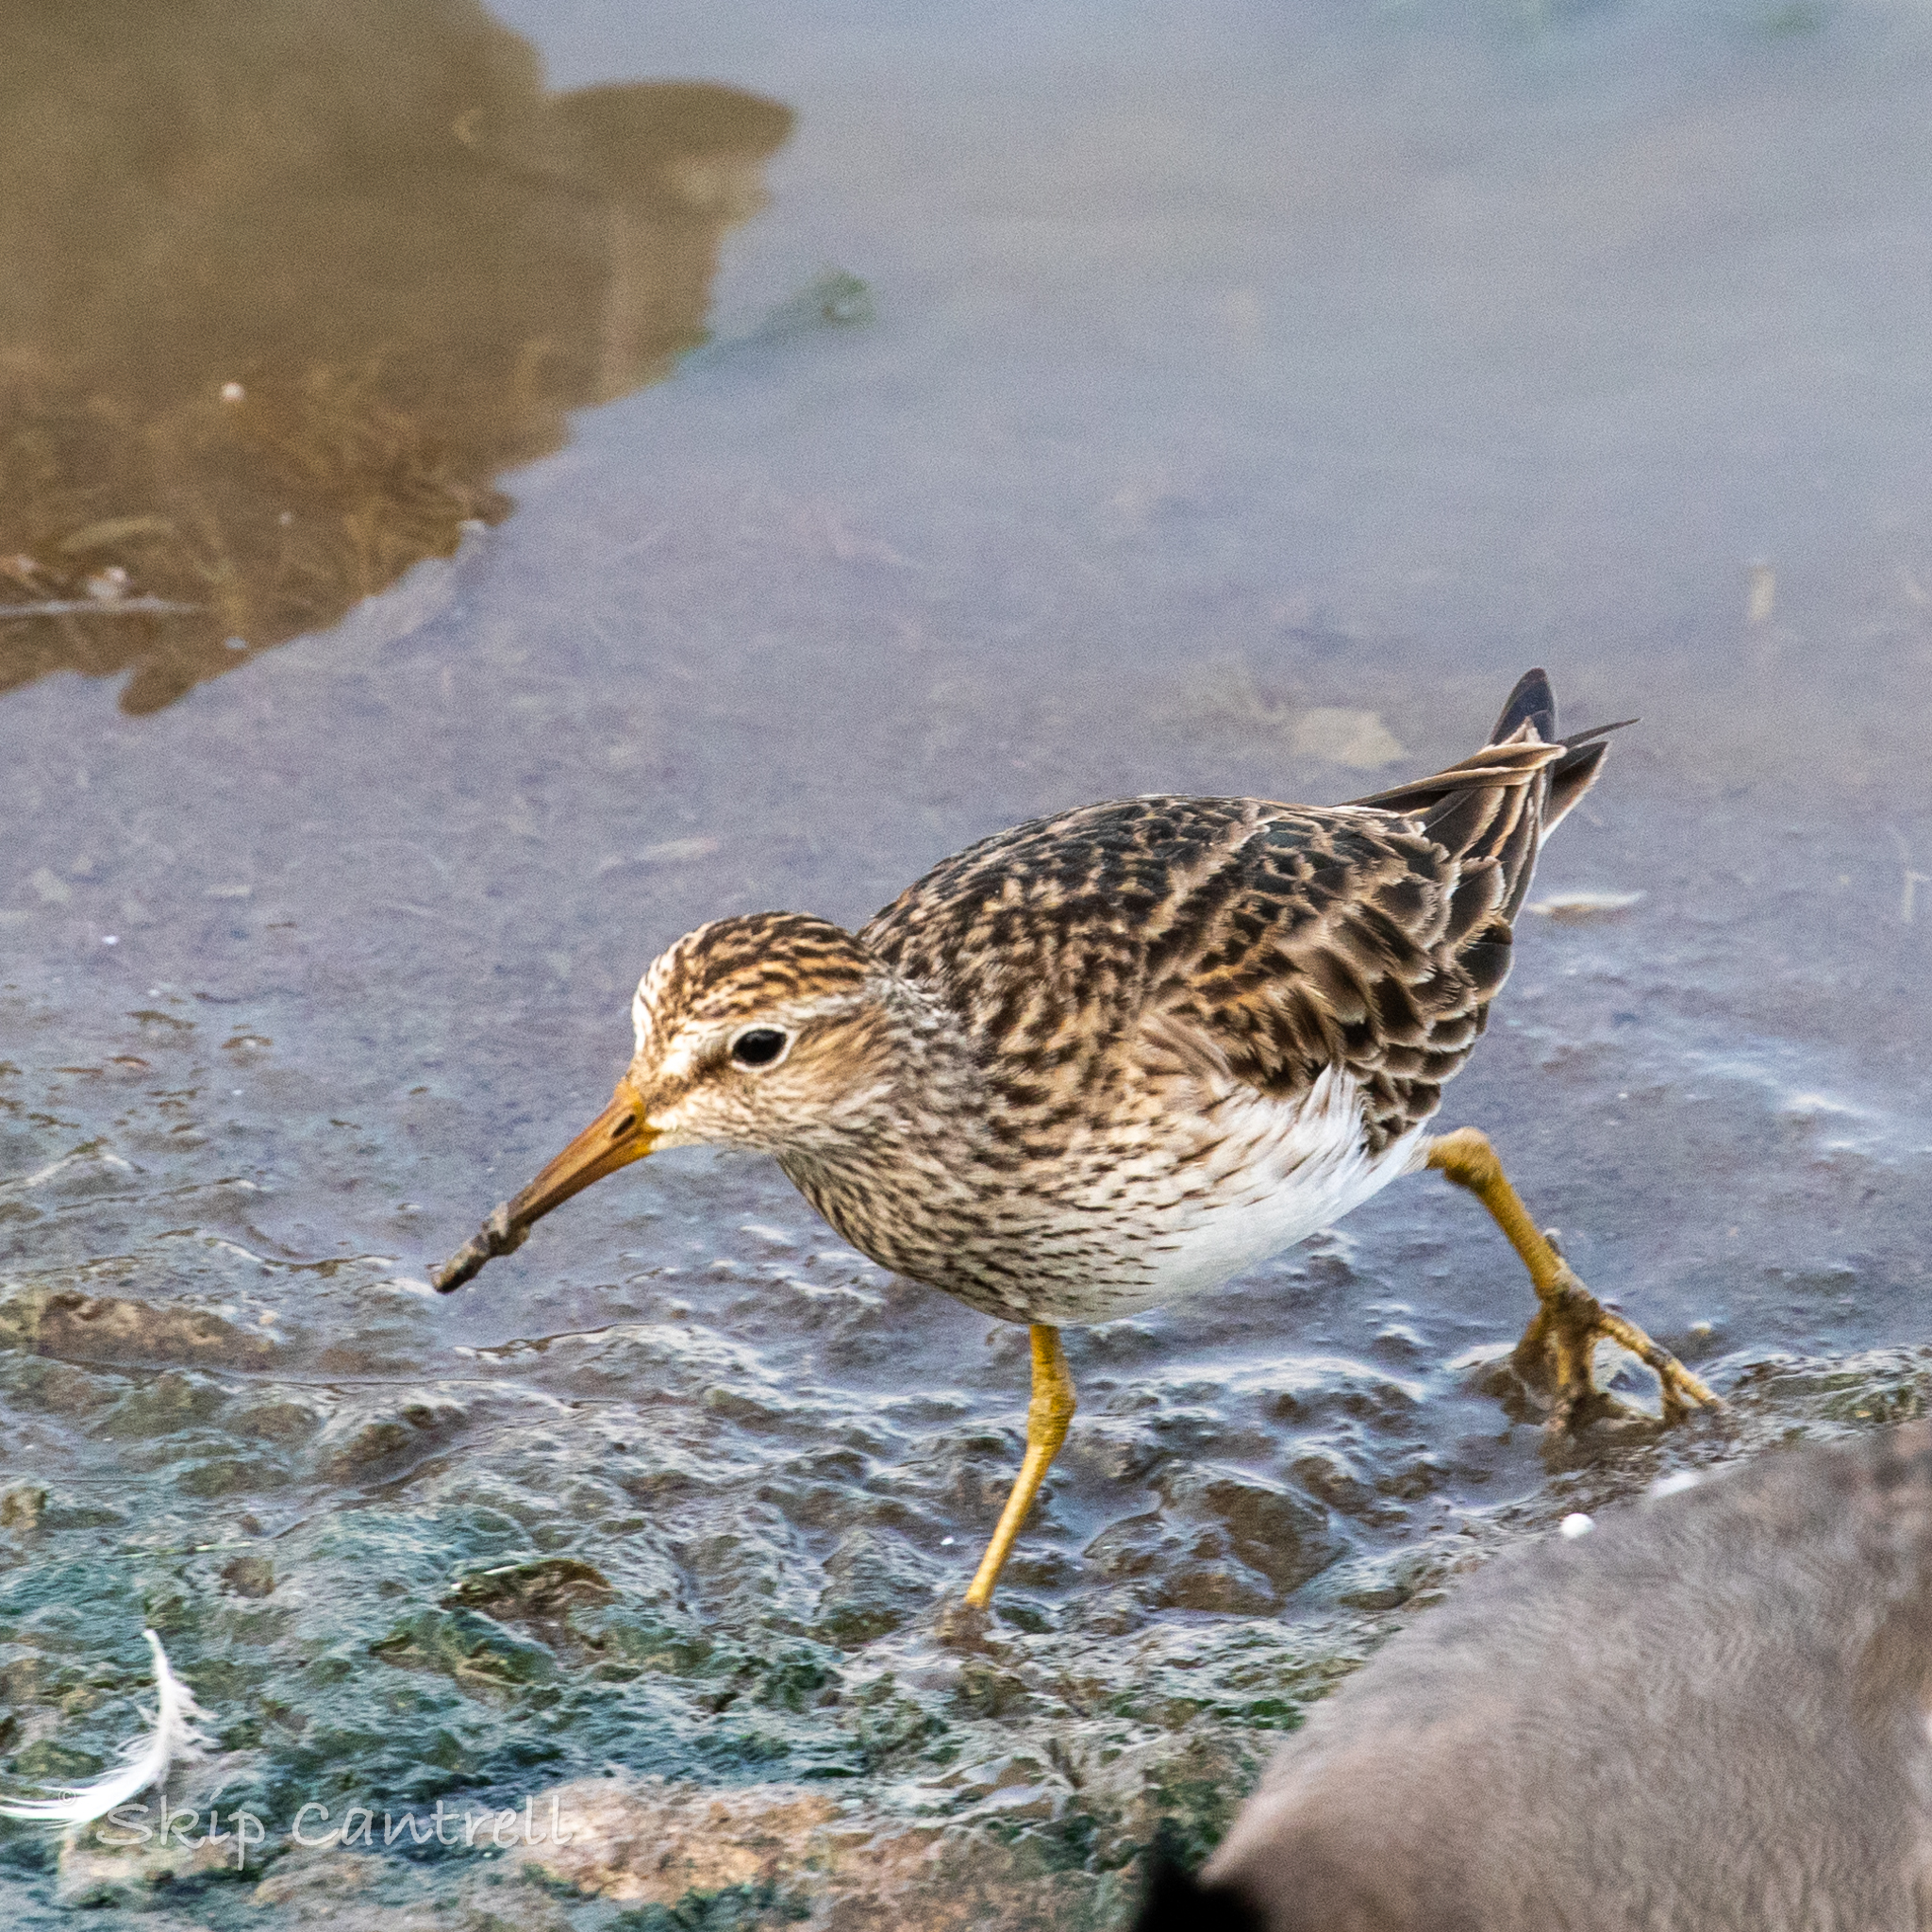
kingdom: Animalia
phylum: Chordata
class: Aves
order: Charadriiformes
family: Scolopacidae
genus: Calidris
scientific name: Calidris melanotos
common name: Pectoral sandpiper
